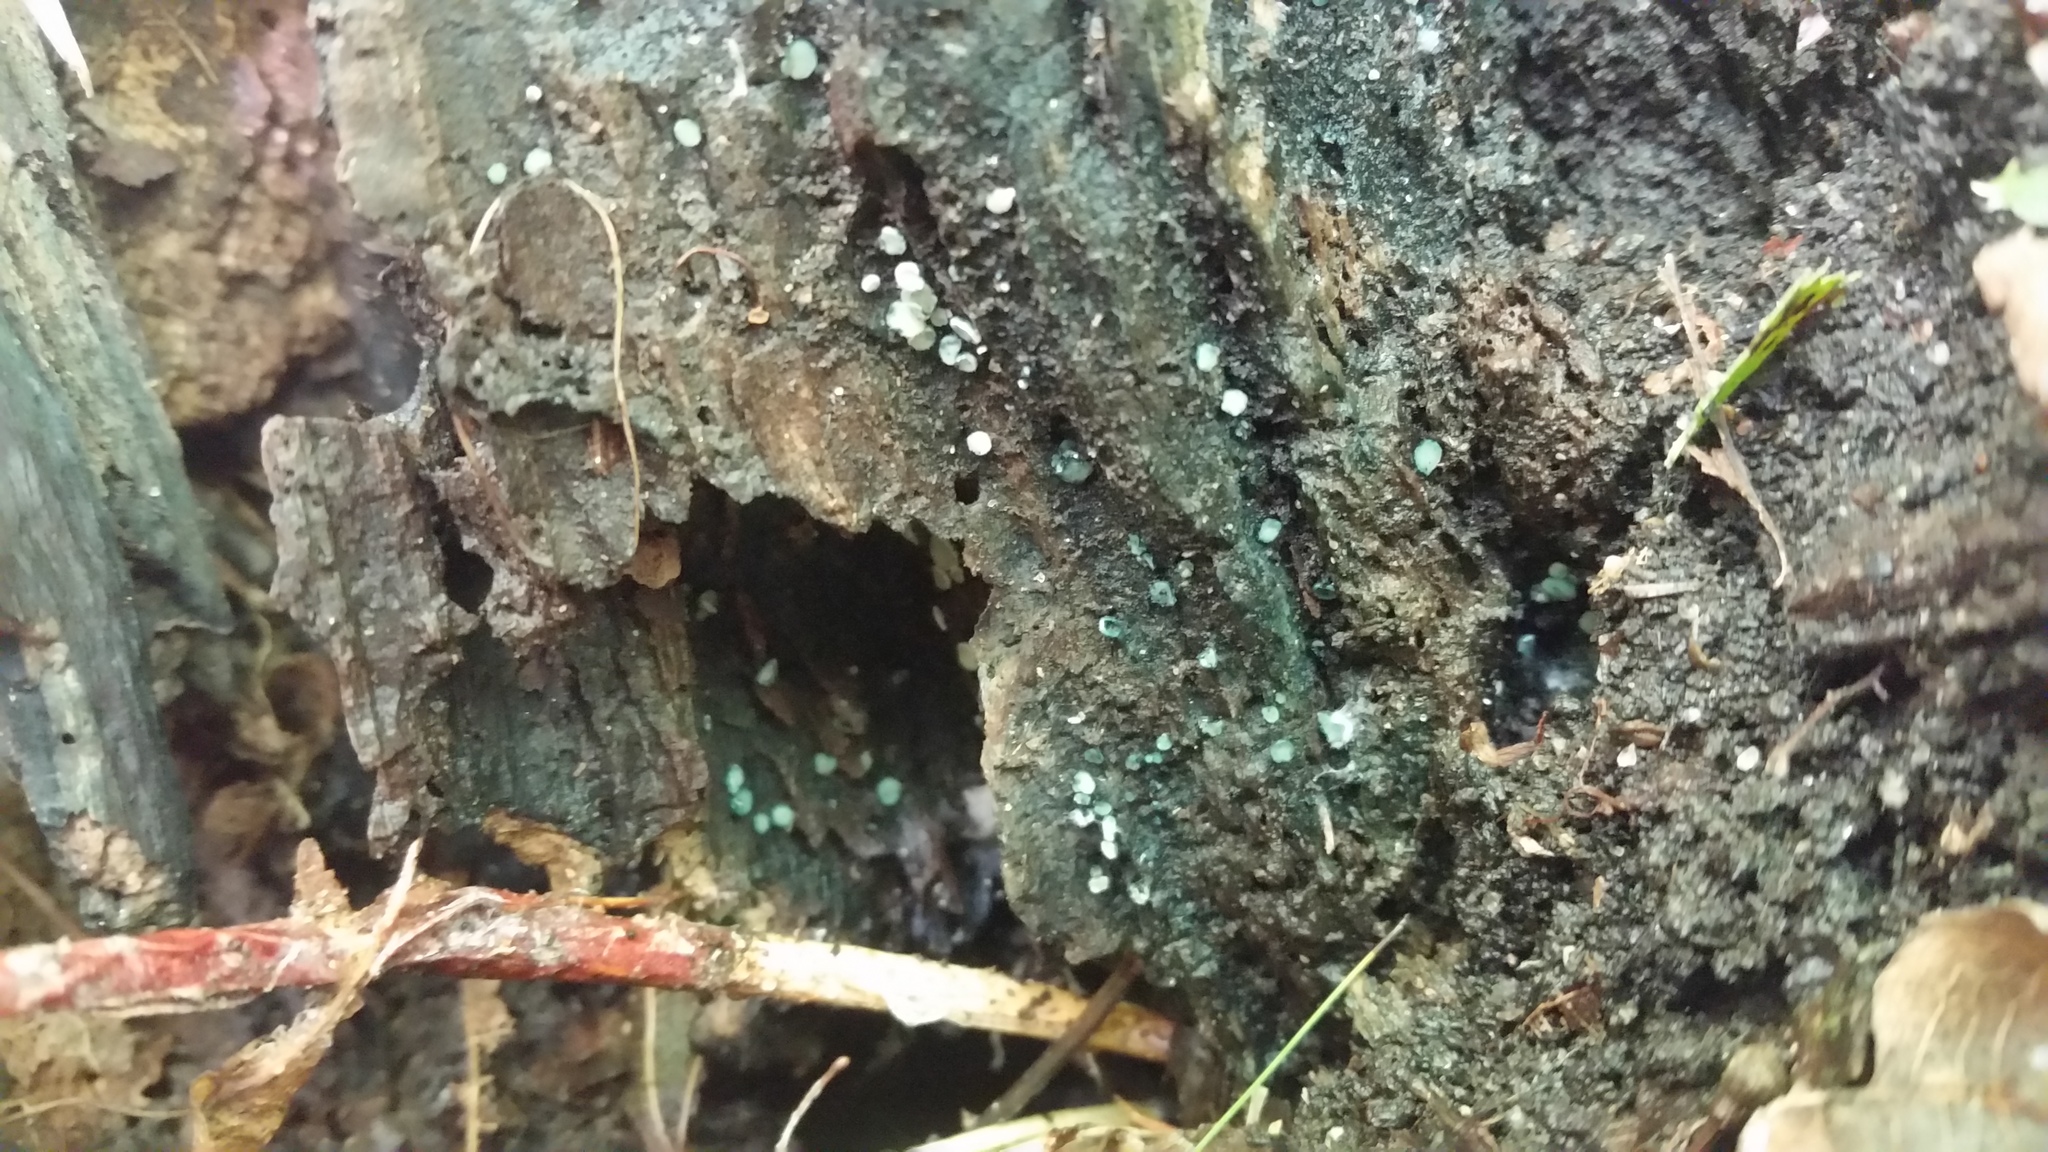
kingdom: Fungi
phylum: Ascomycota
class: Leotiomycetes
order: Helotiales
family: Hyaloscyphaceae
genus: Aeruginoscyphus
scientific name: Aeruginoscyphus sericeus
